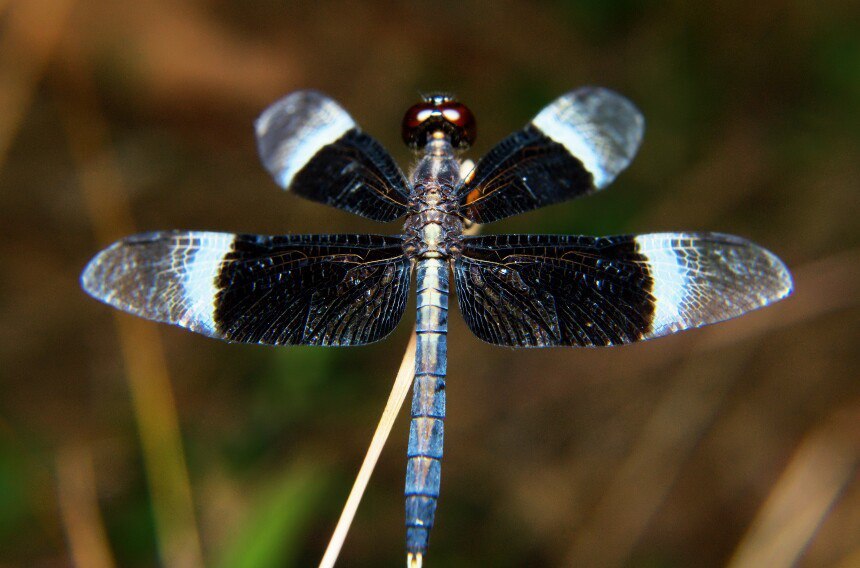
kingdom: Animalia
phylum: Arthropoda
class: Insecta
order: Odonata
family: Libellulidae
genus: Neurothemis
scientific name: Neurothemis tullia
